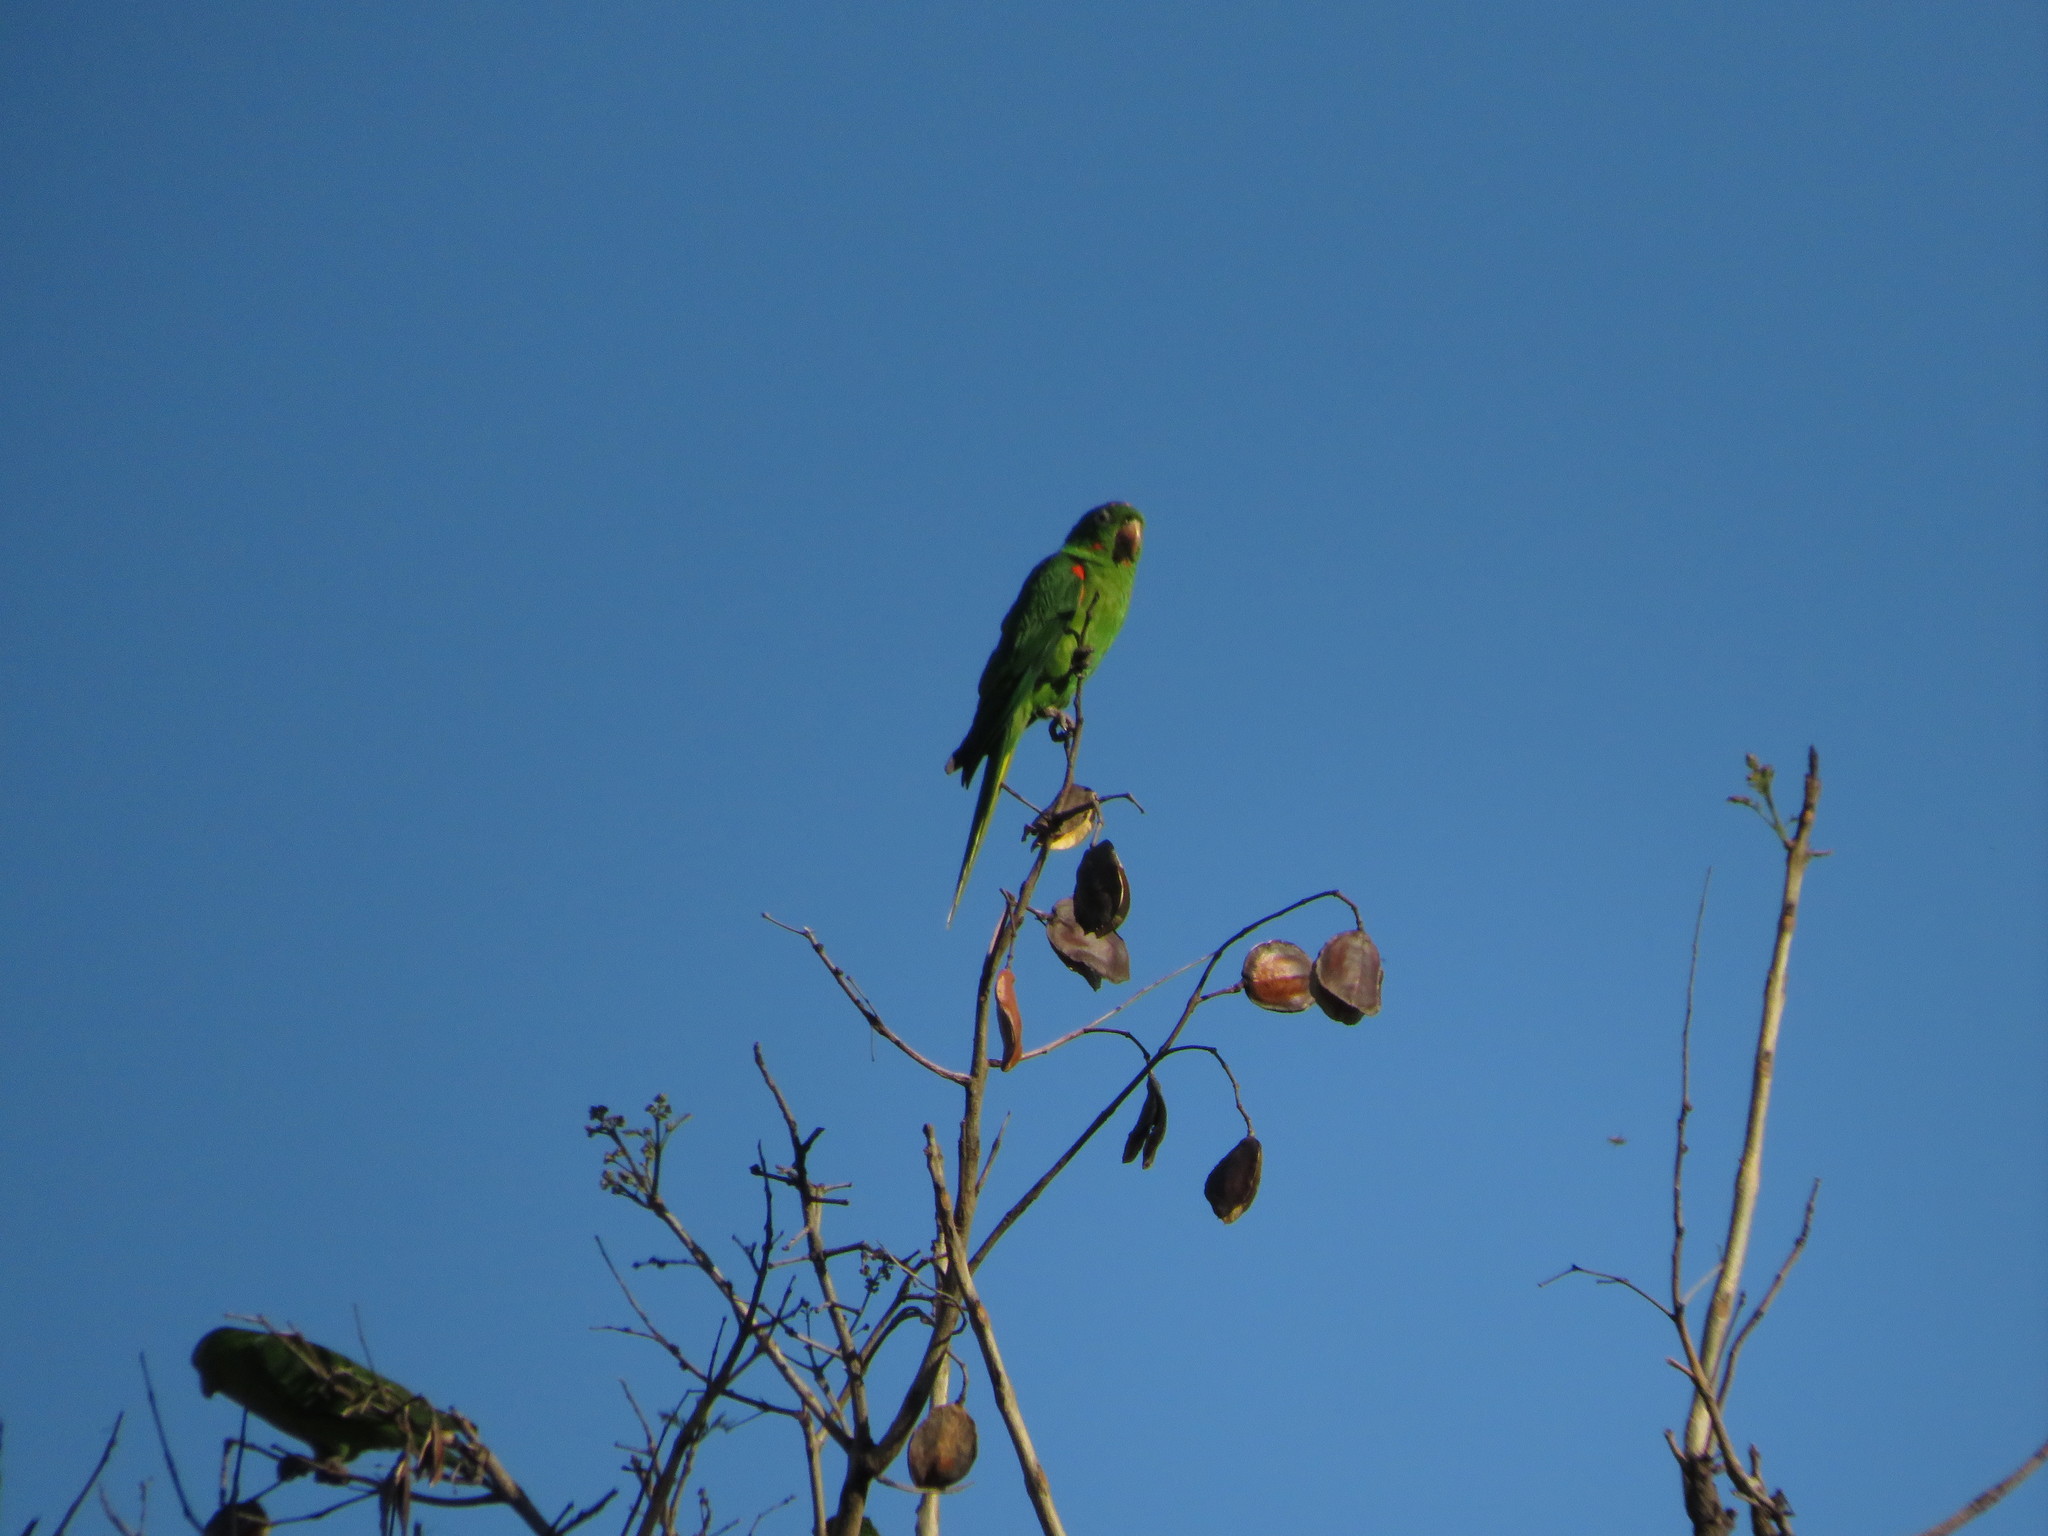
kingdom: Animalia
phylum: Chordata
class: Aves
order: Psittaciformes
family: Psittacidae
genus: Aratinga
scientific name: Aratinga leucophthalma
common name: White-eyed parakeet
